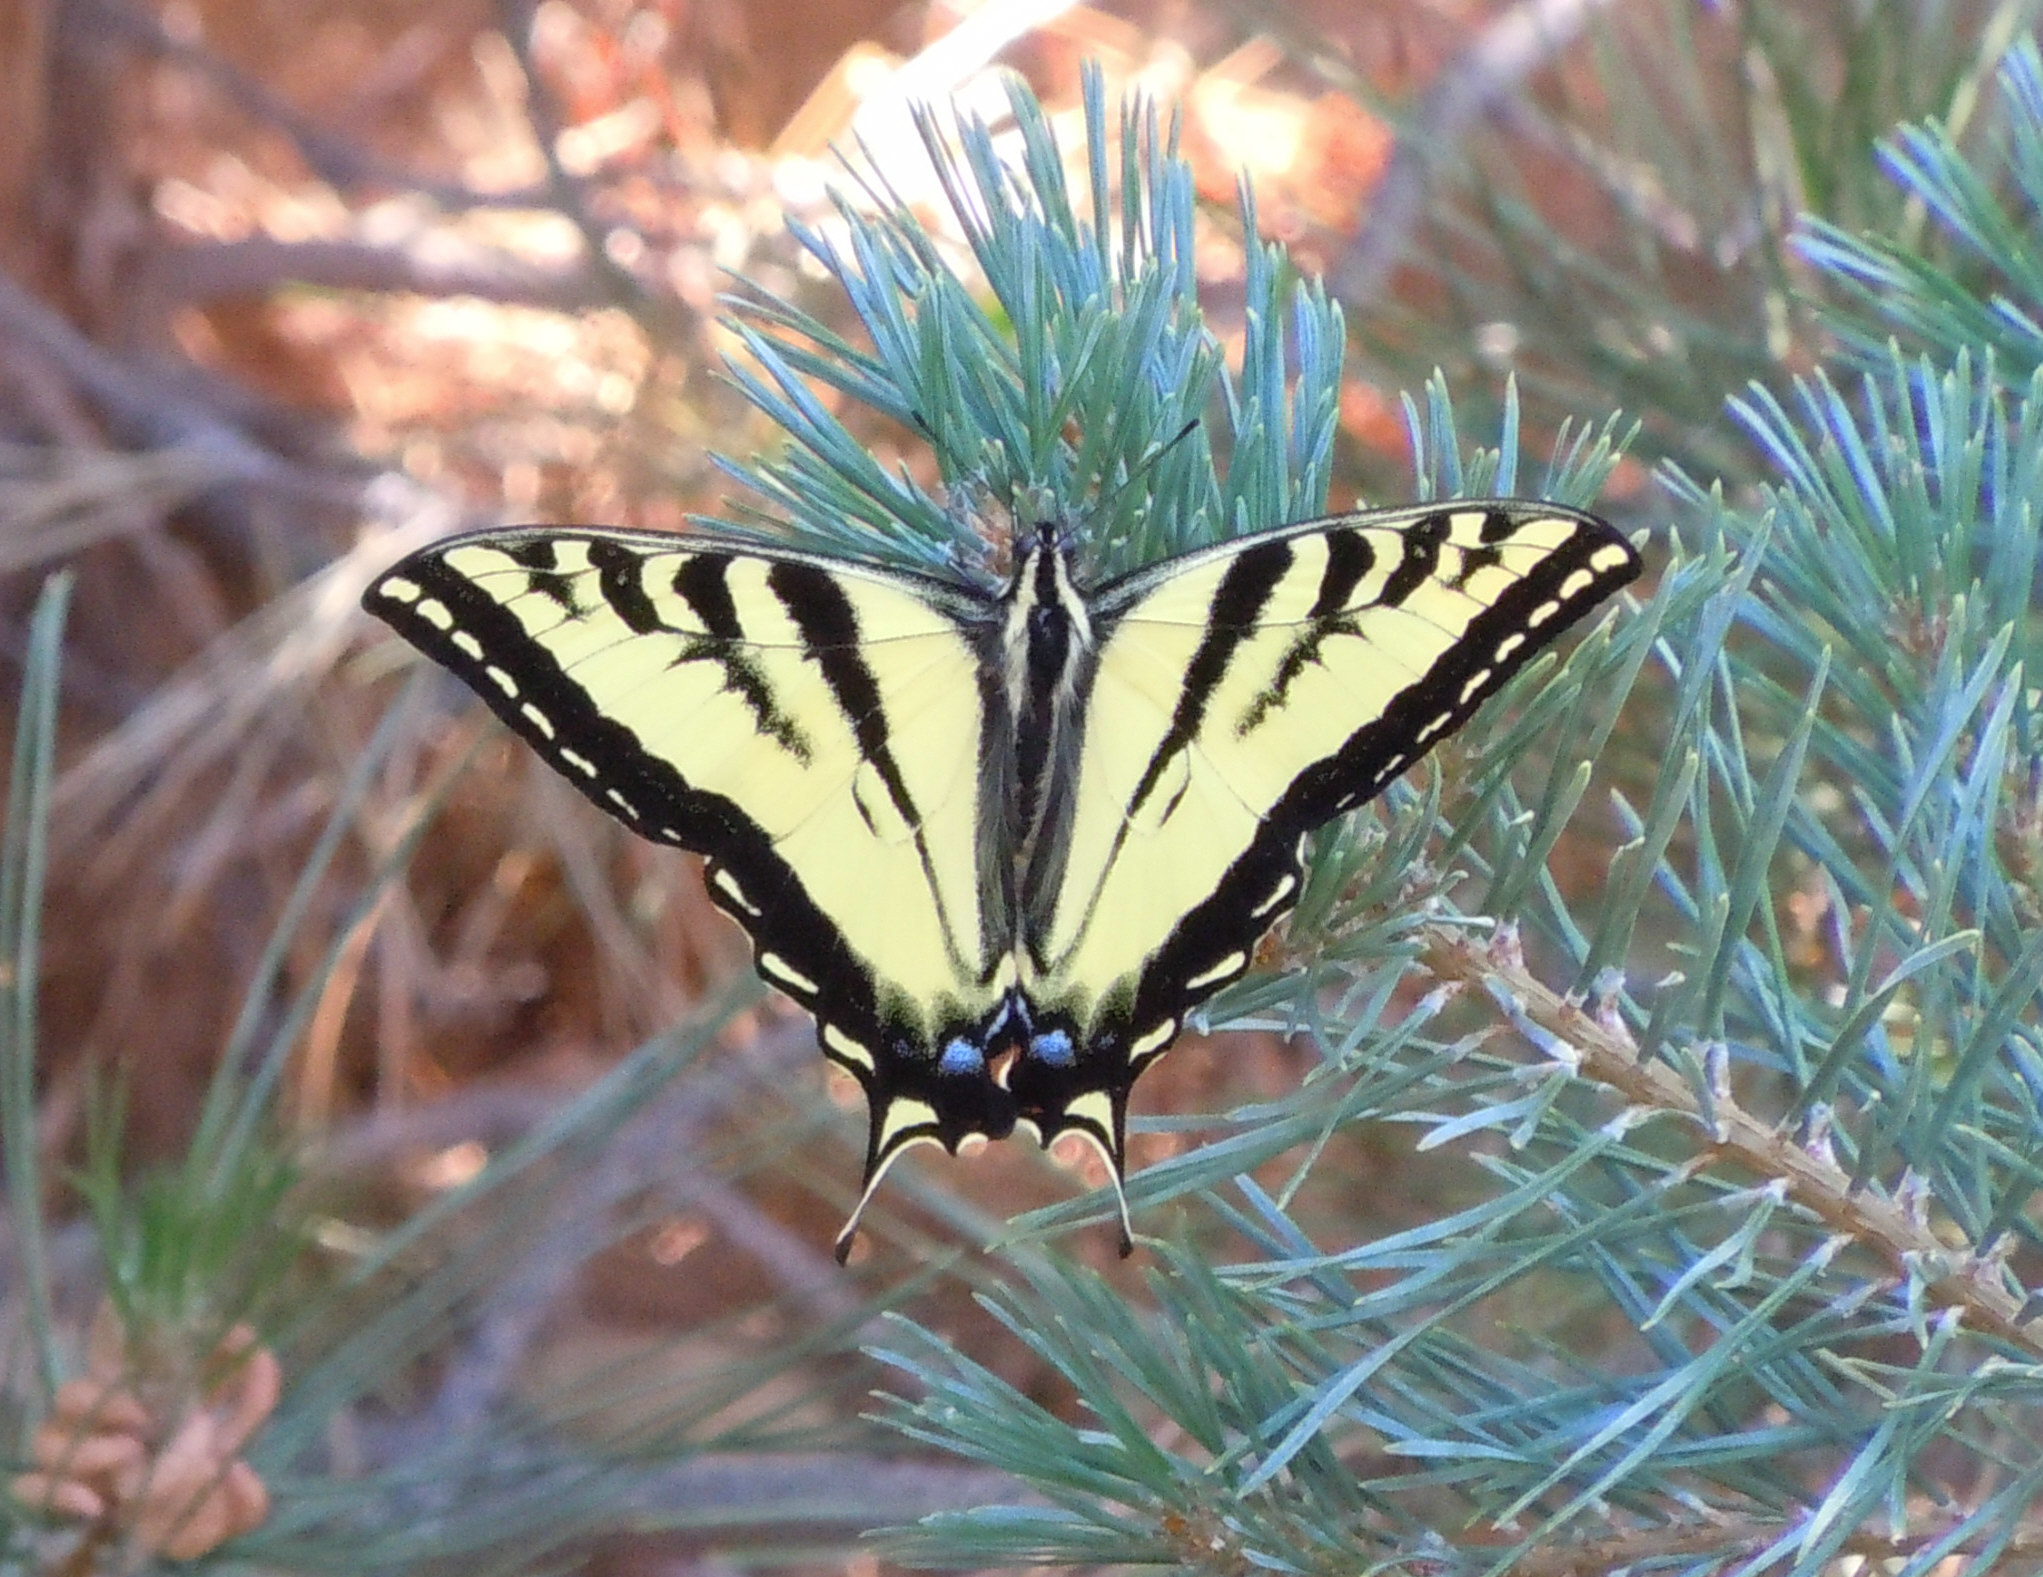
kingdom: Animalia
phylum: Arthropoda
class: Insecta
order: Lepidoptera
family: Papilionidae
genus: Papilio
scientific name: Papilio rutulus
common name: Western tiger swallowtail
